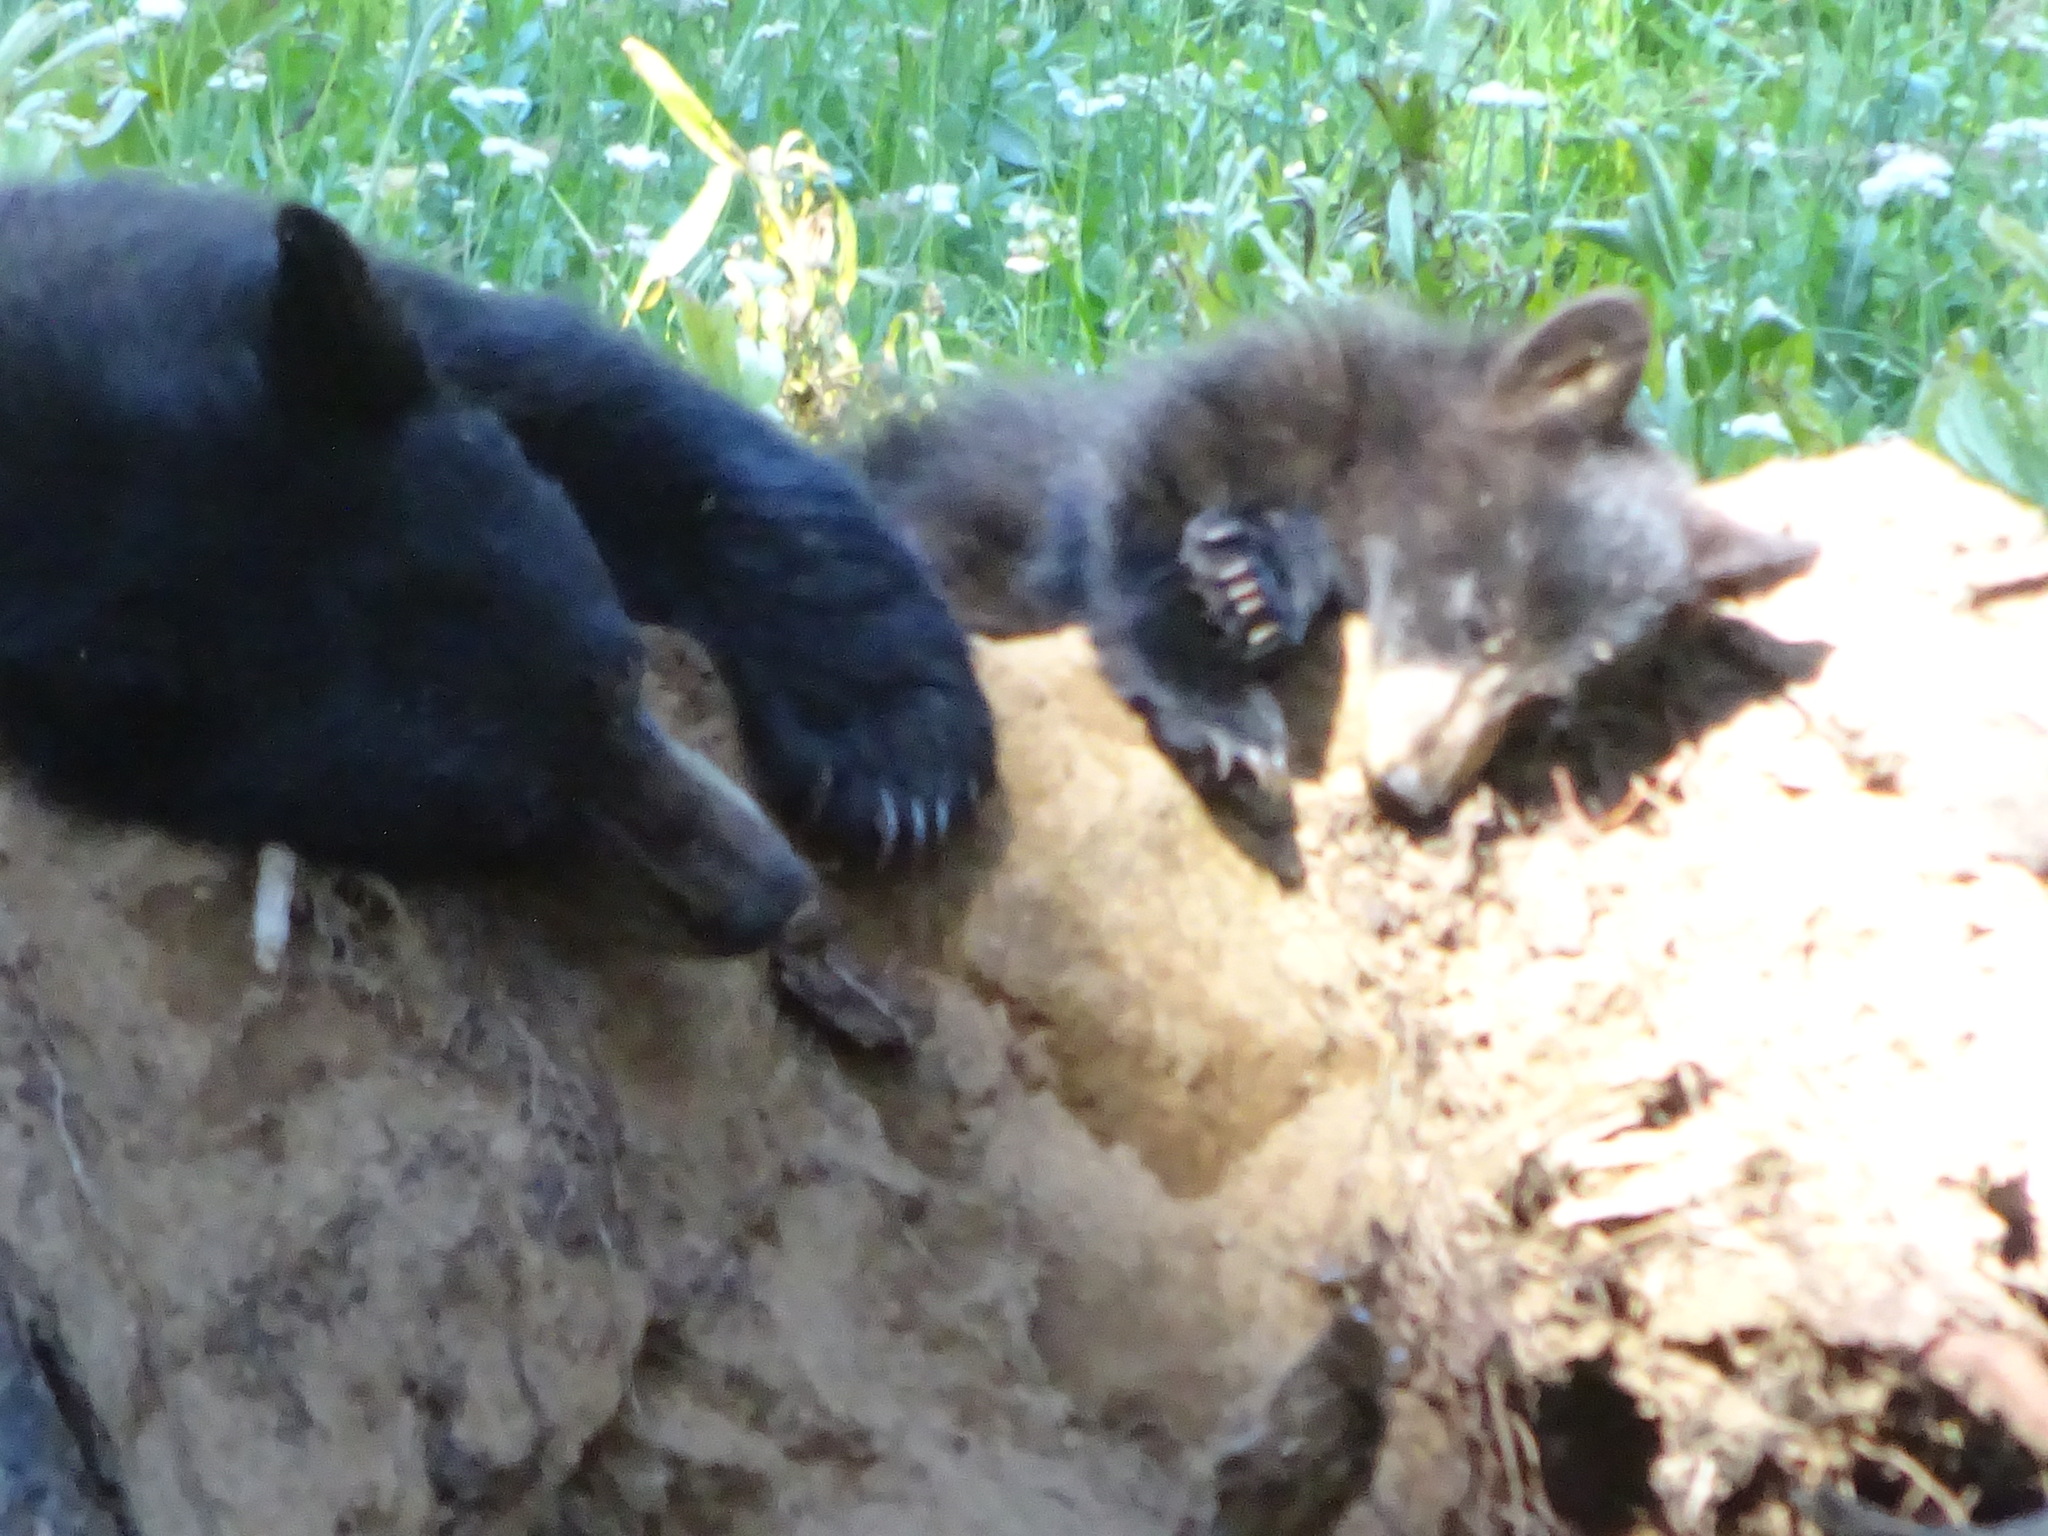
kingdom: Animalia
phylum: Chordata
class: Mammalia
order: Carnivora
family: Ursidae
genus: Ursus
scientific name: Ursus americanus
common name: American black bear
